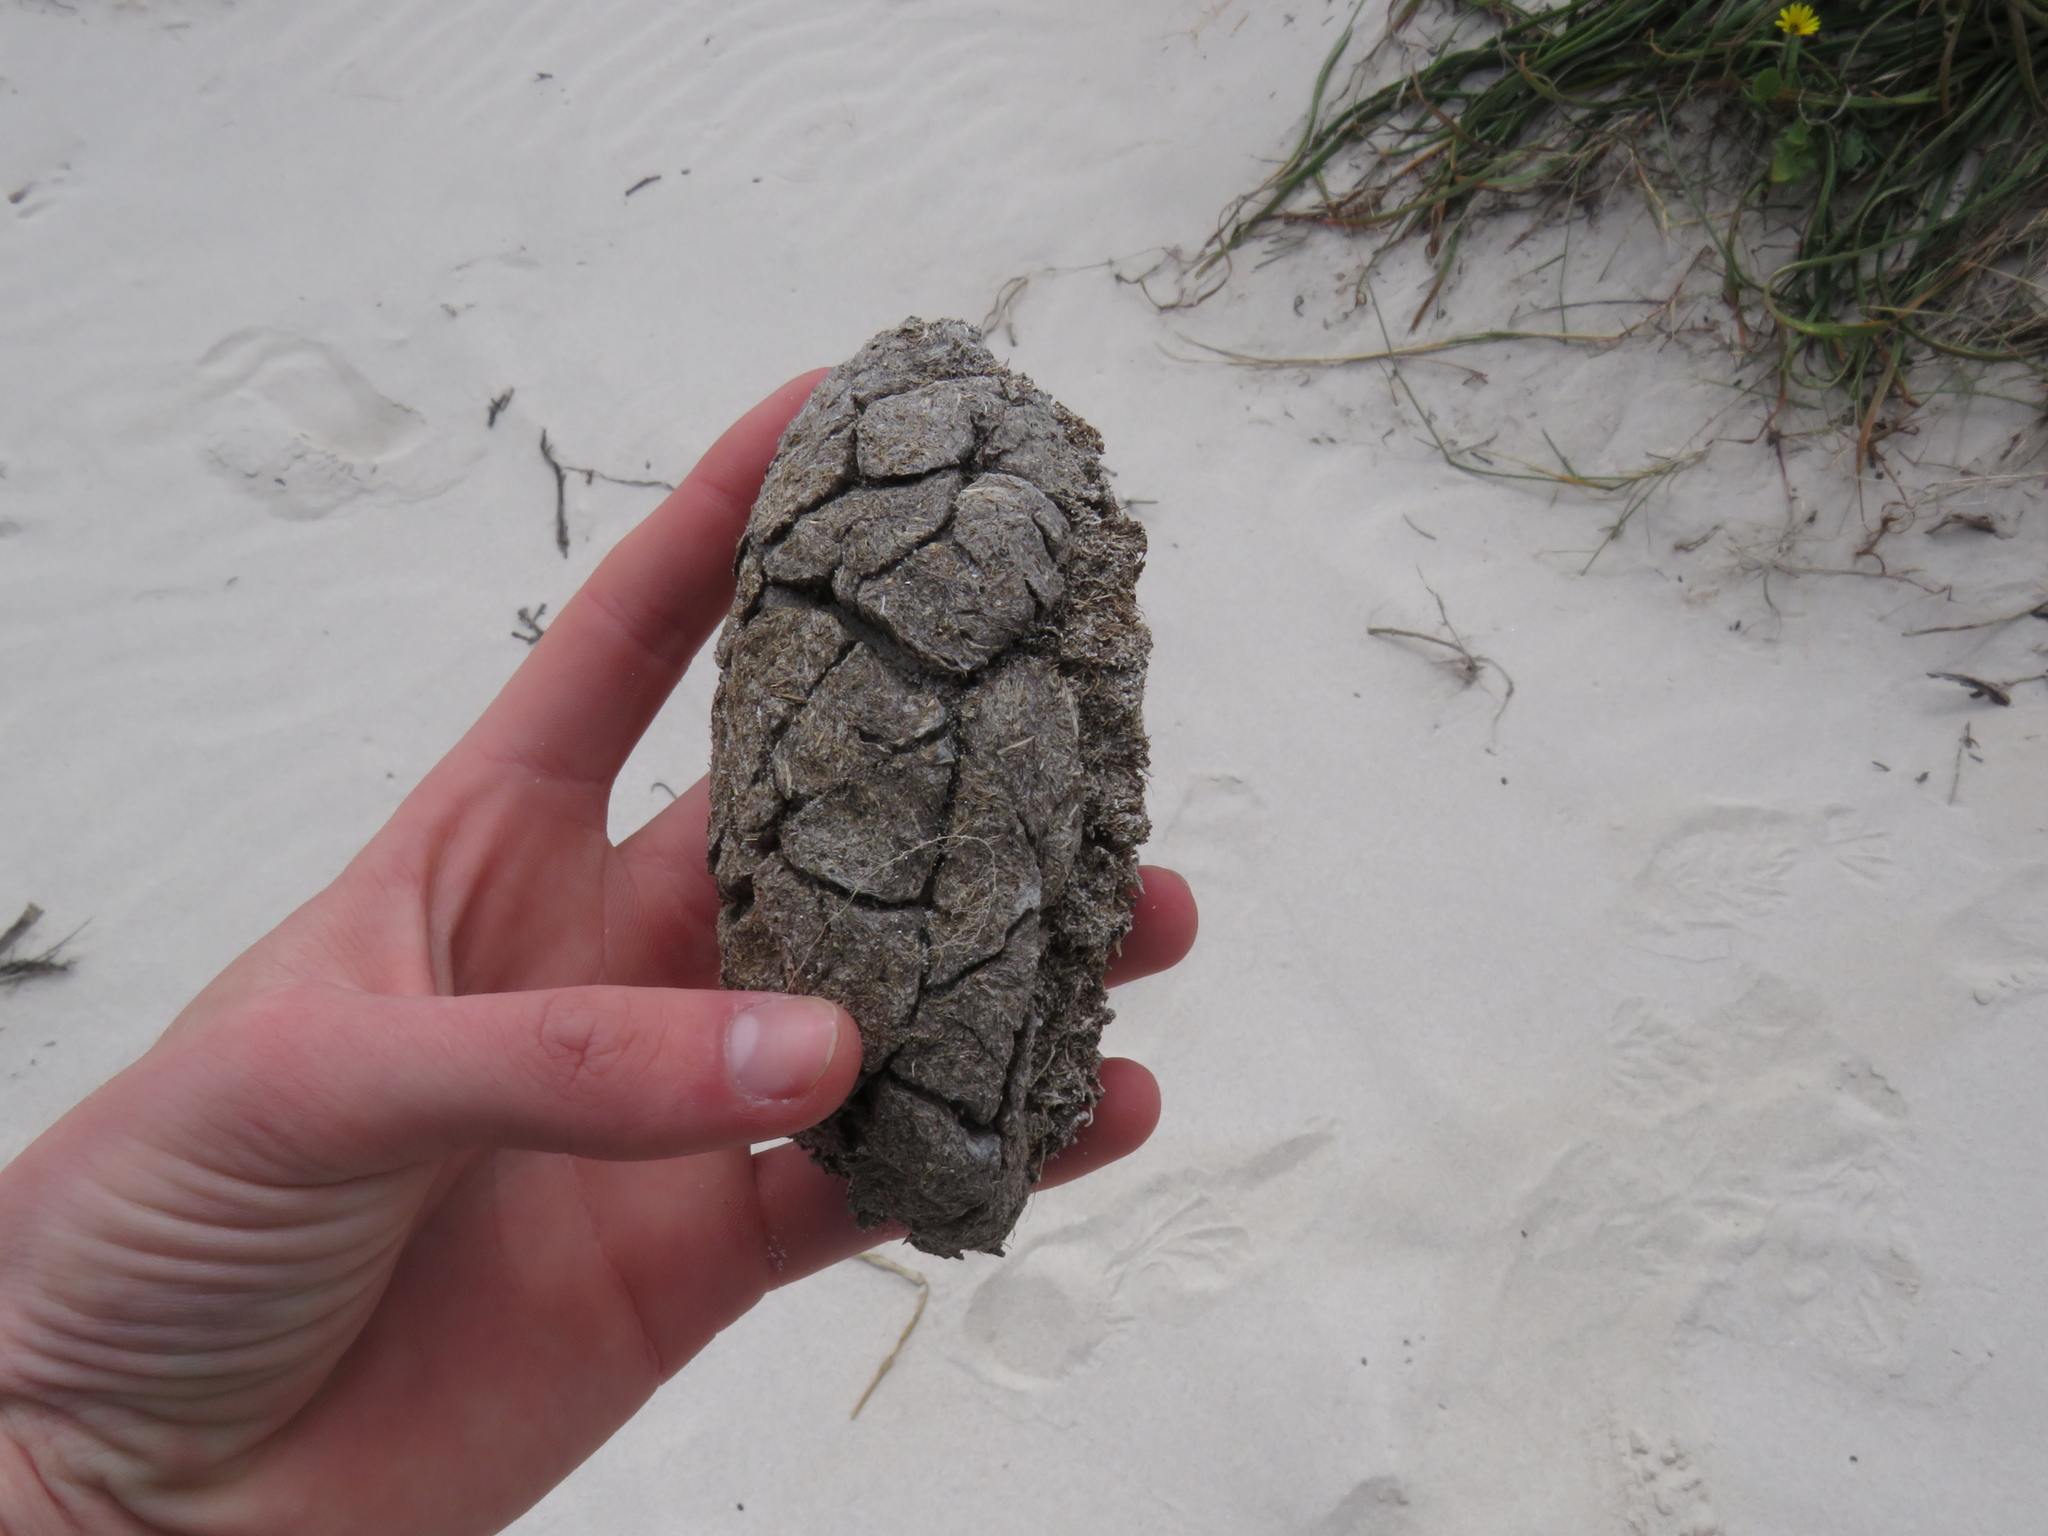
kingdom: Animalia
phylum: Chordata
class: Aves
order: Struthioniformes
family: Struthionidae
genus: Struthio
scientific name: Struthio camelus
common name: Common ostrich
